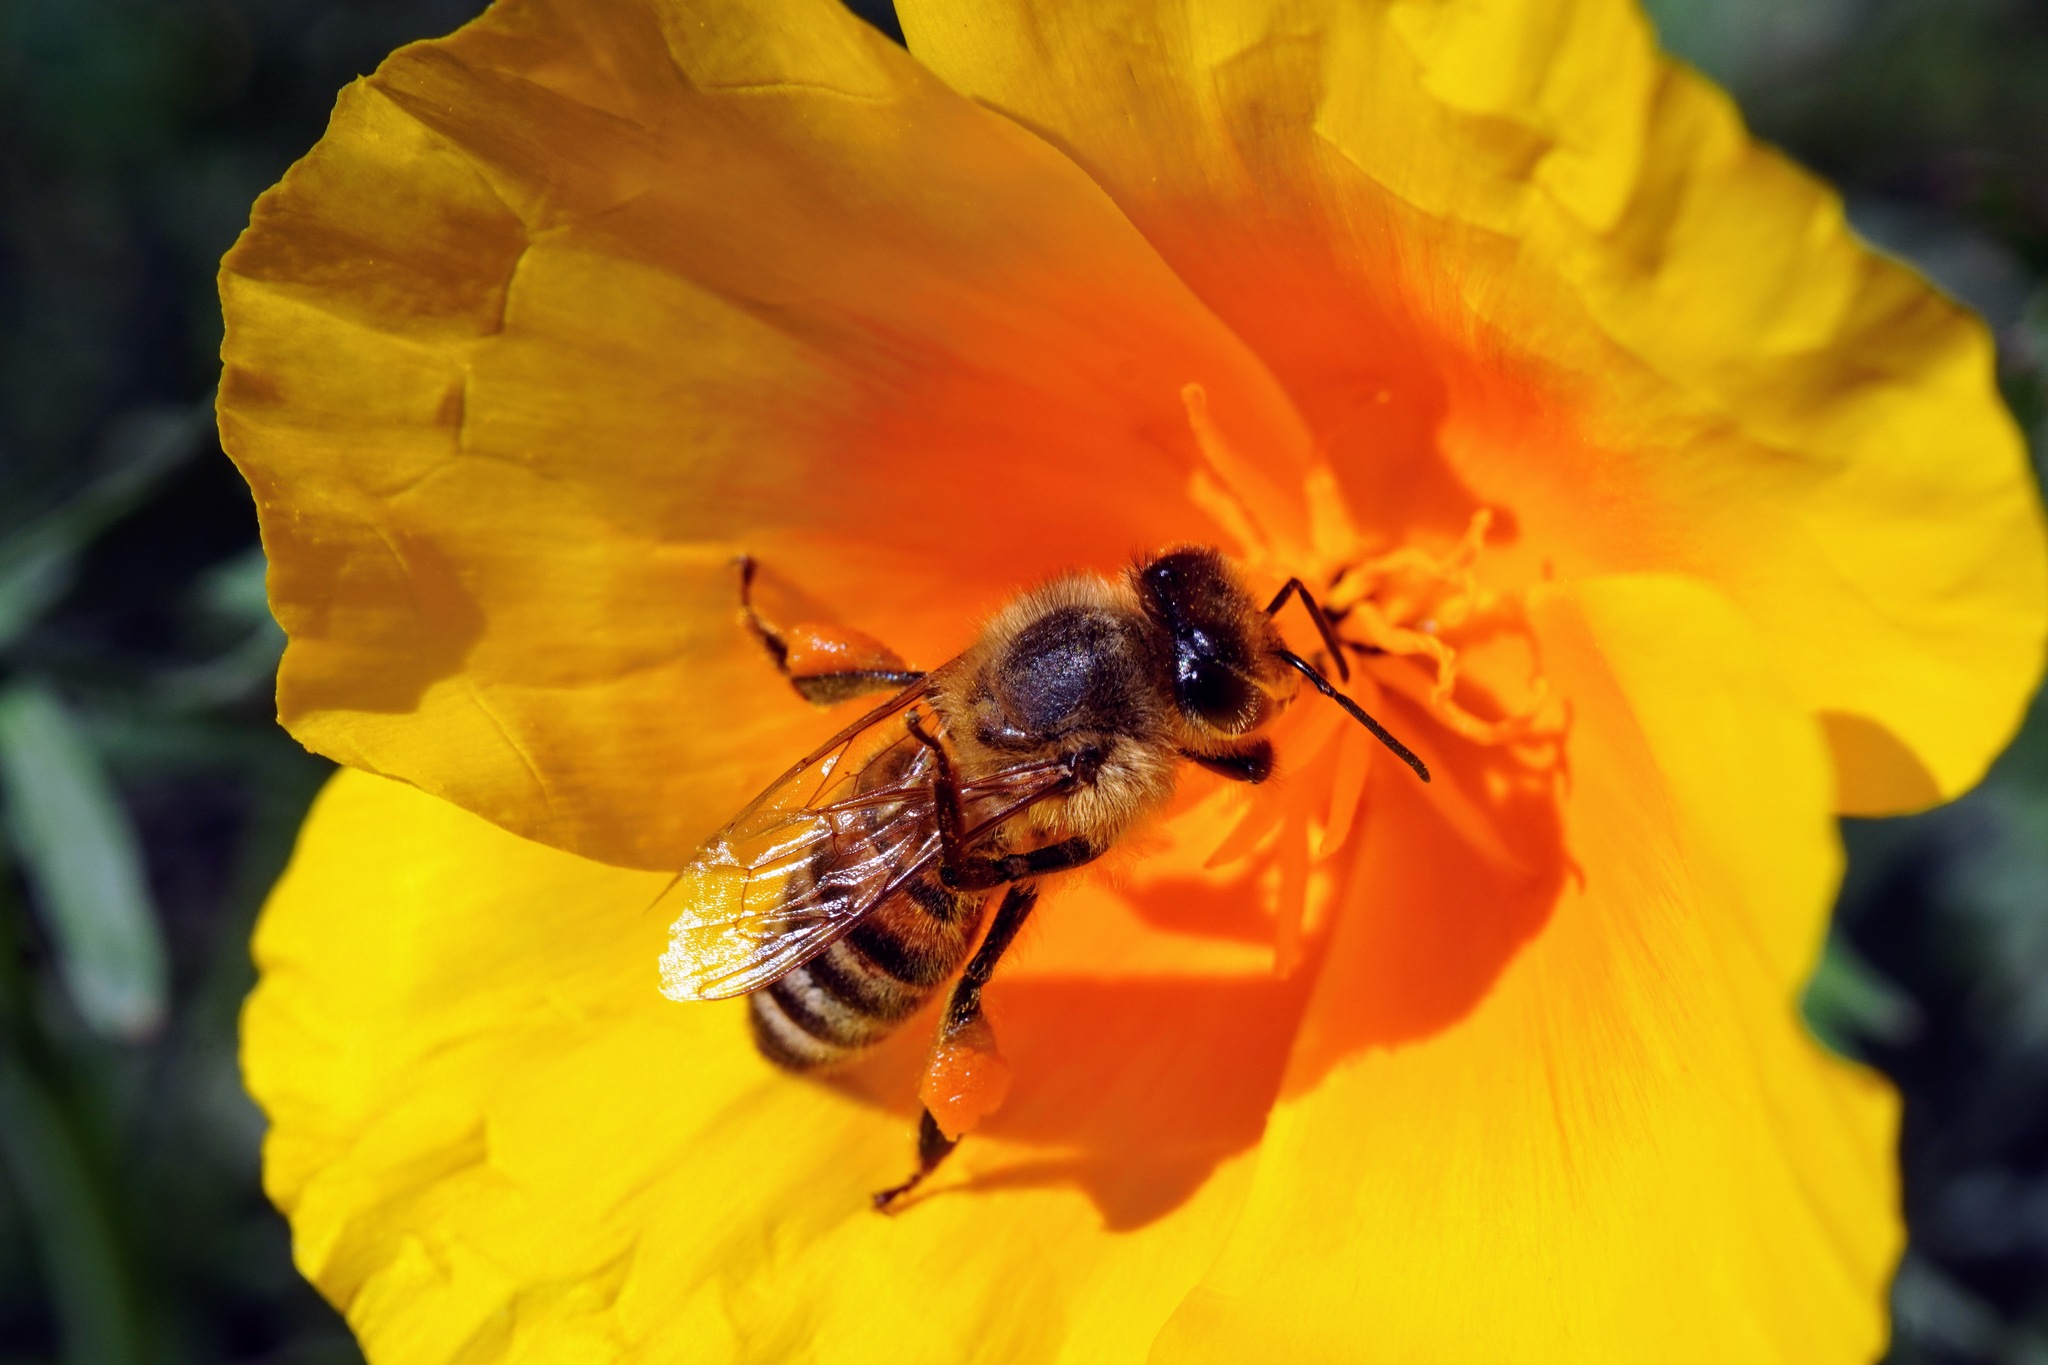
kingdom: Animalia
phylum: Arthropoda
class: Insecta
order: Hymenoptera
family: Apidae
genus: Apis
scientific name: Apis mellifera
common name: Honey bee
